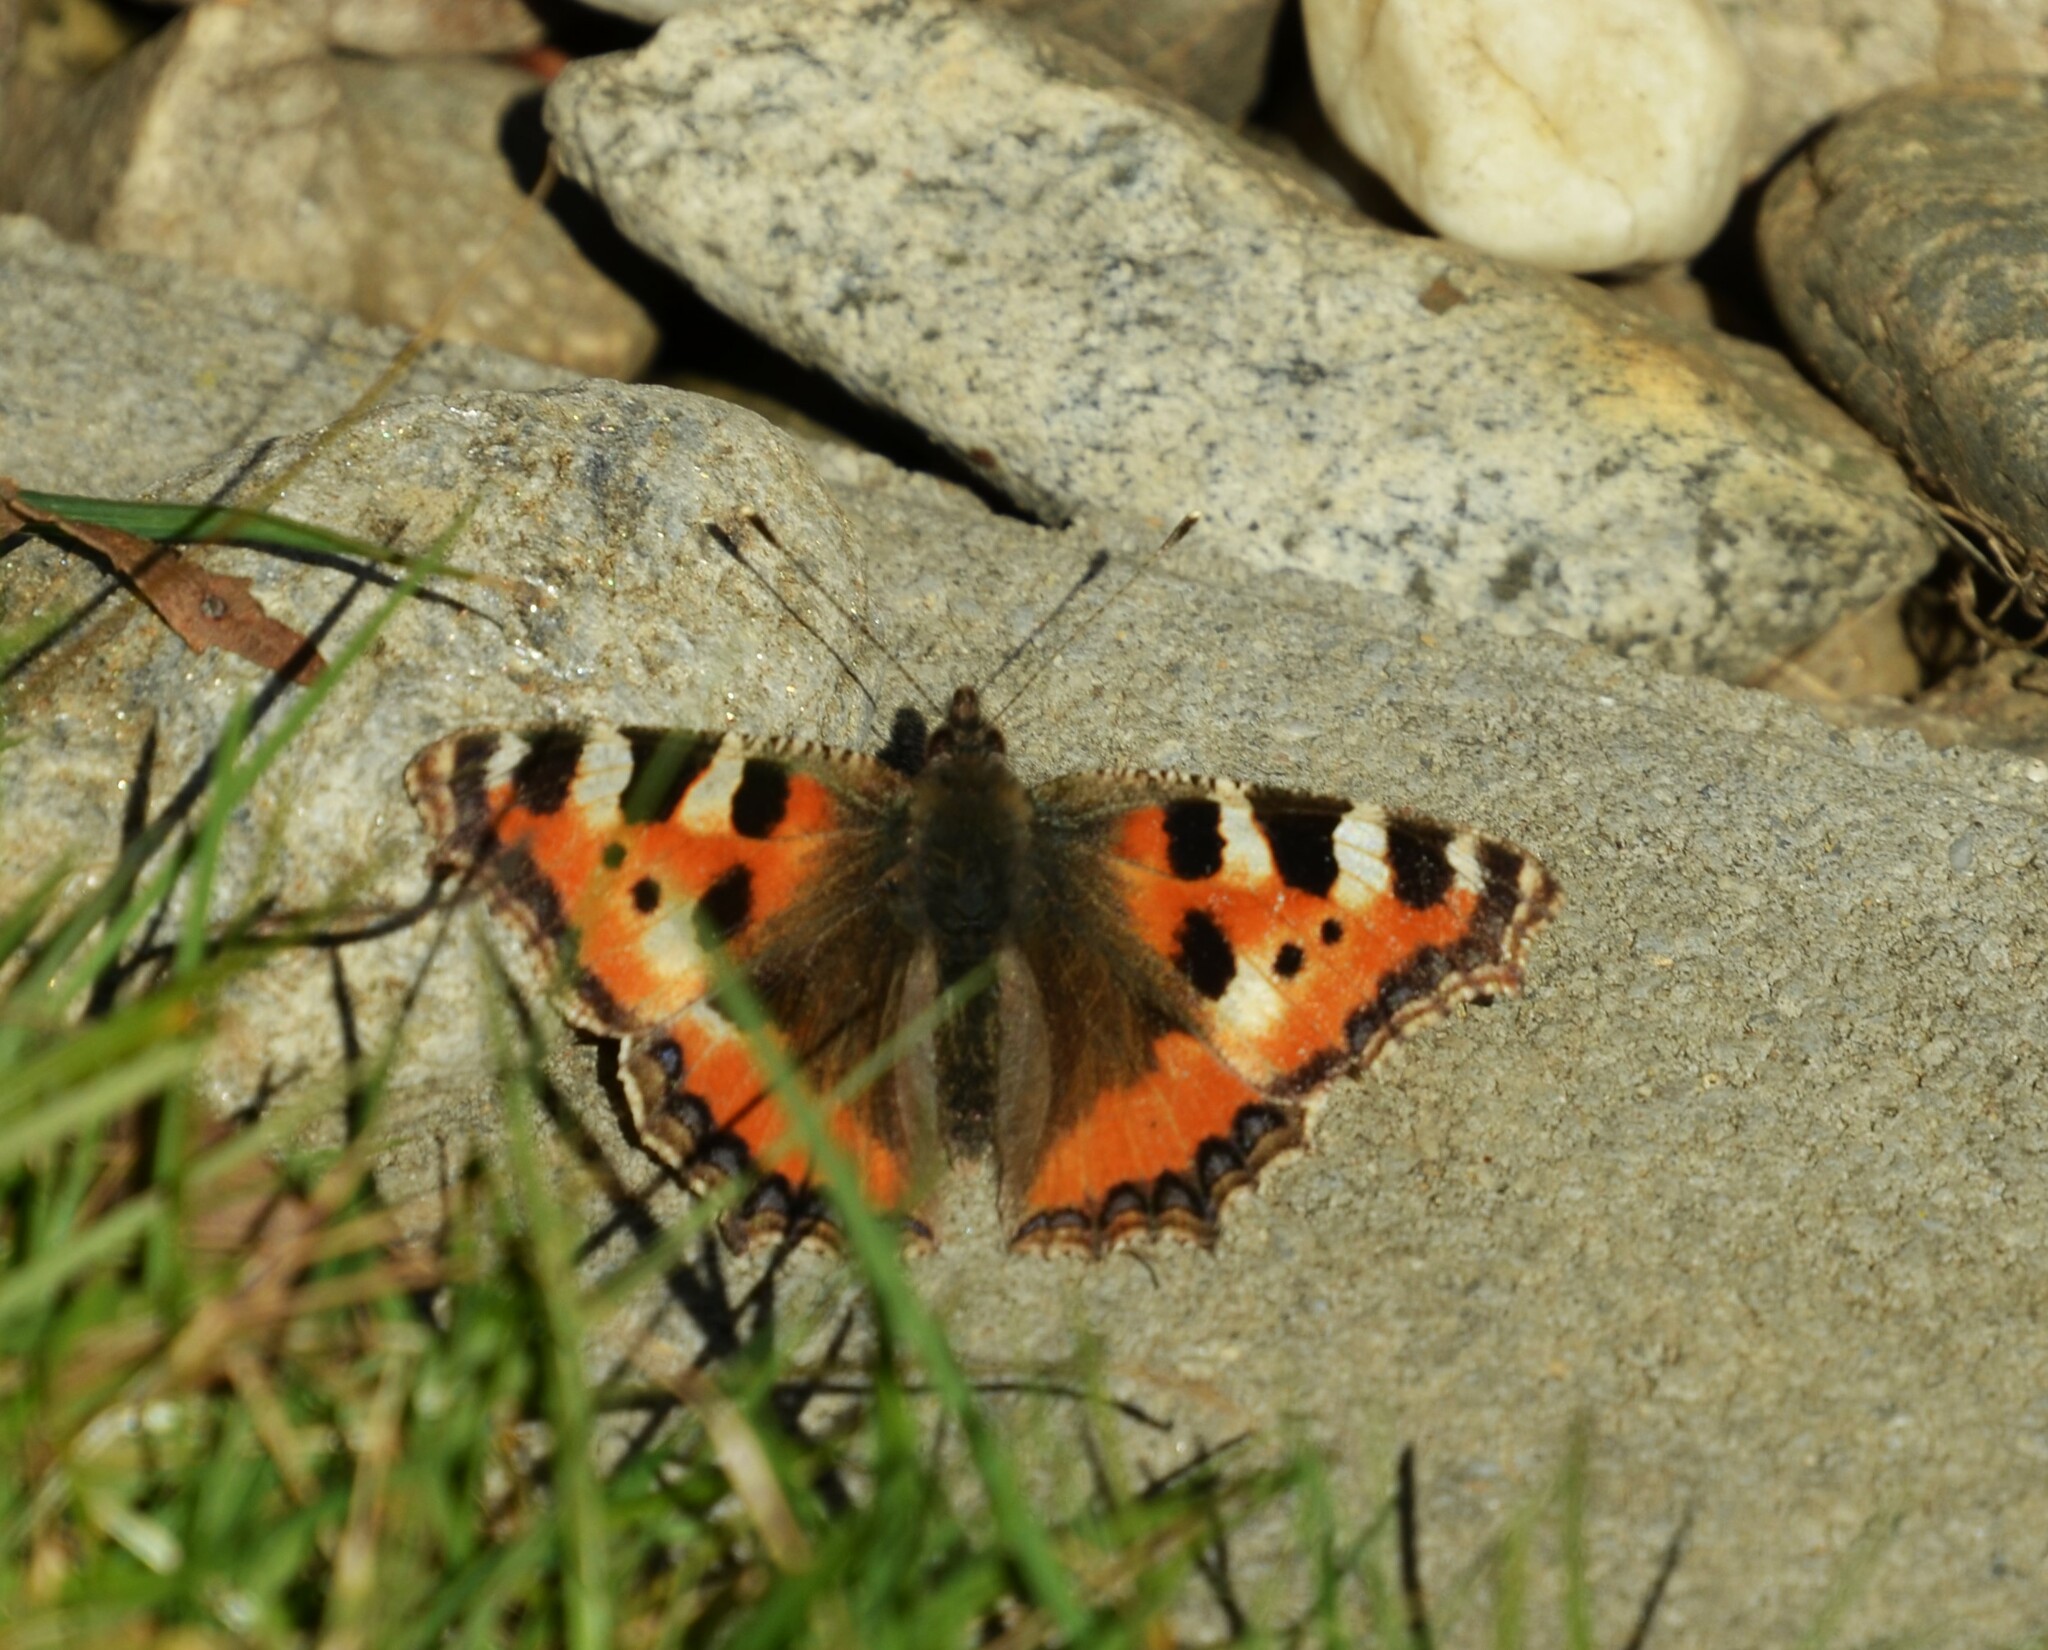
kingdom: Animalia
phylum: Arthropoda
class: Insecta
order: Lepidoptera
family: Nymphalidae
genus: Aglais
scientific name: Aglais urticae
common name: Small tortoiseshell
